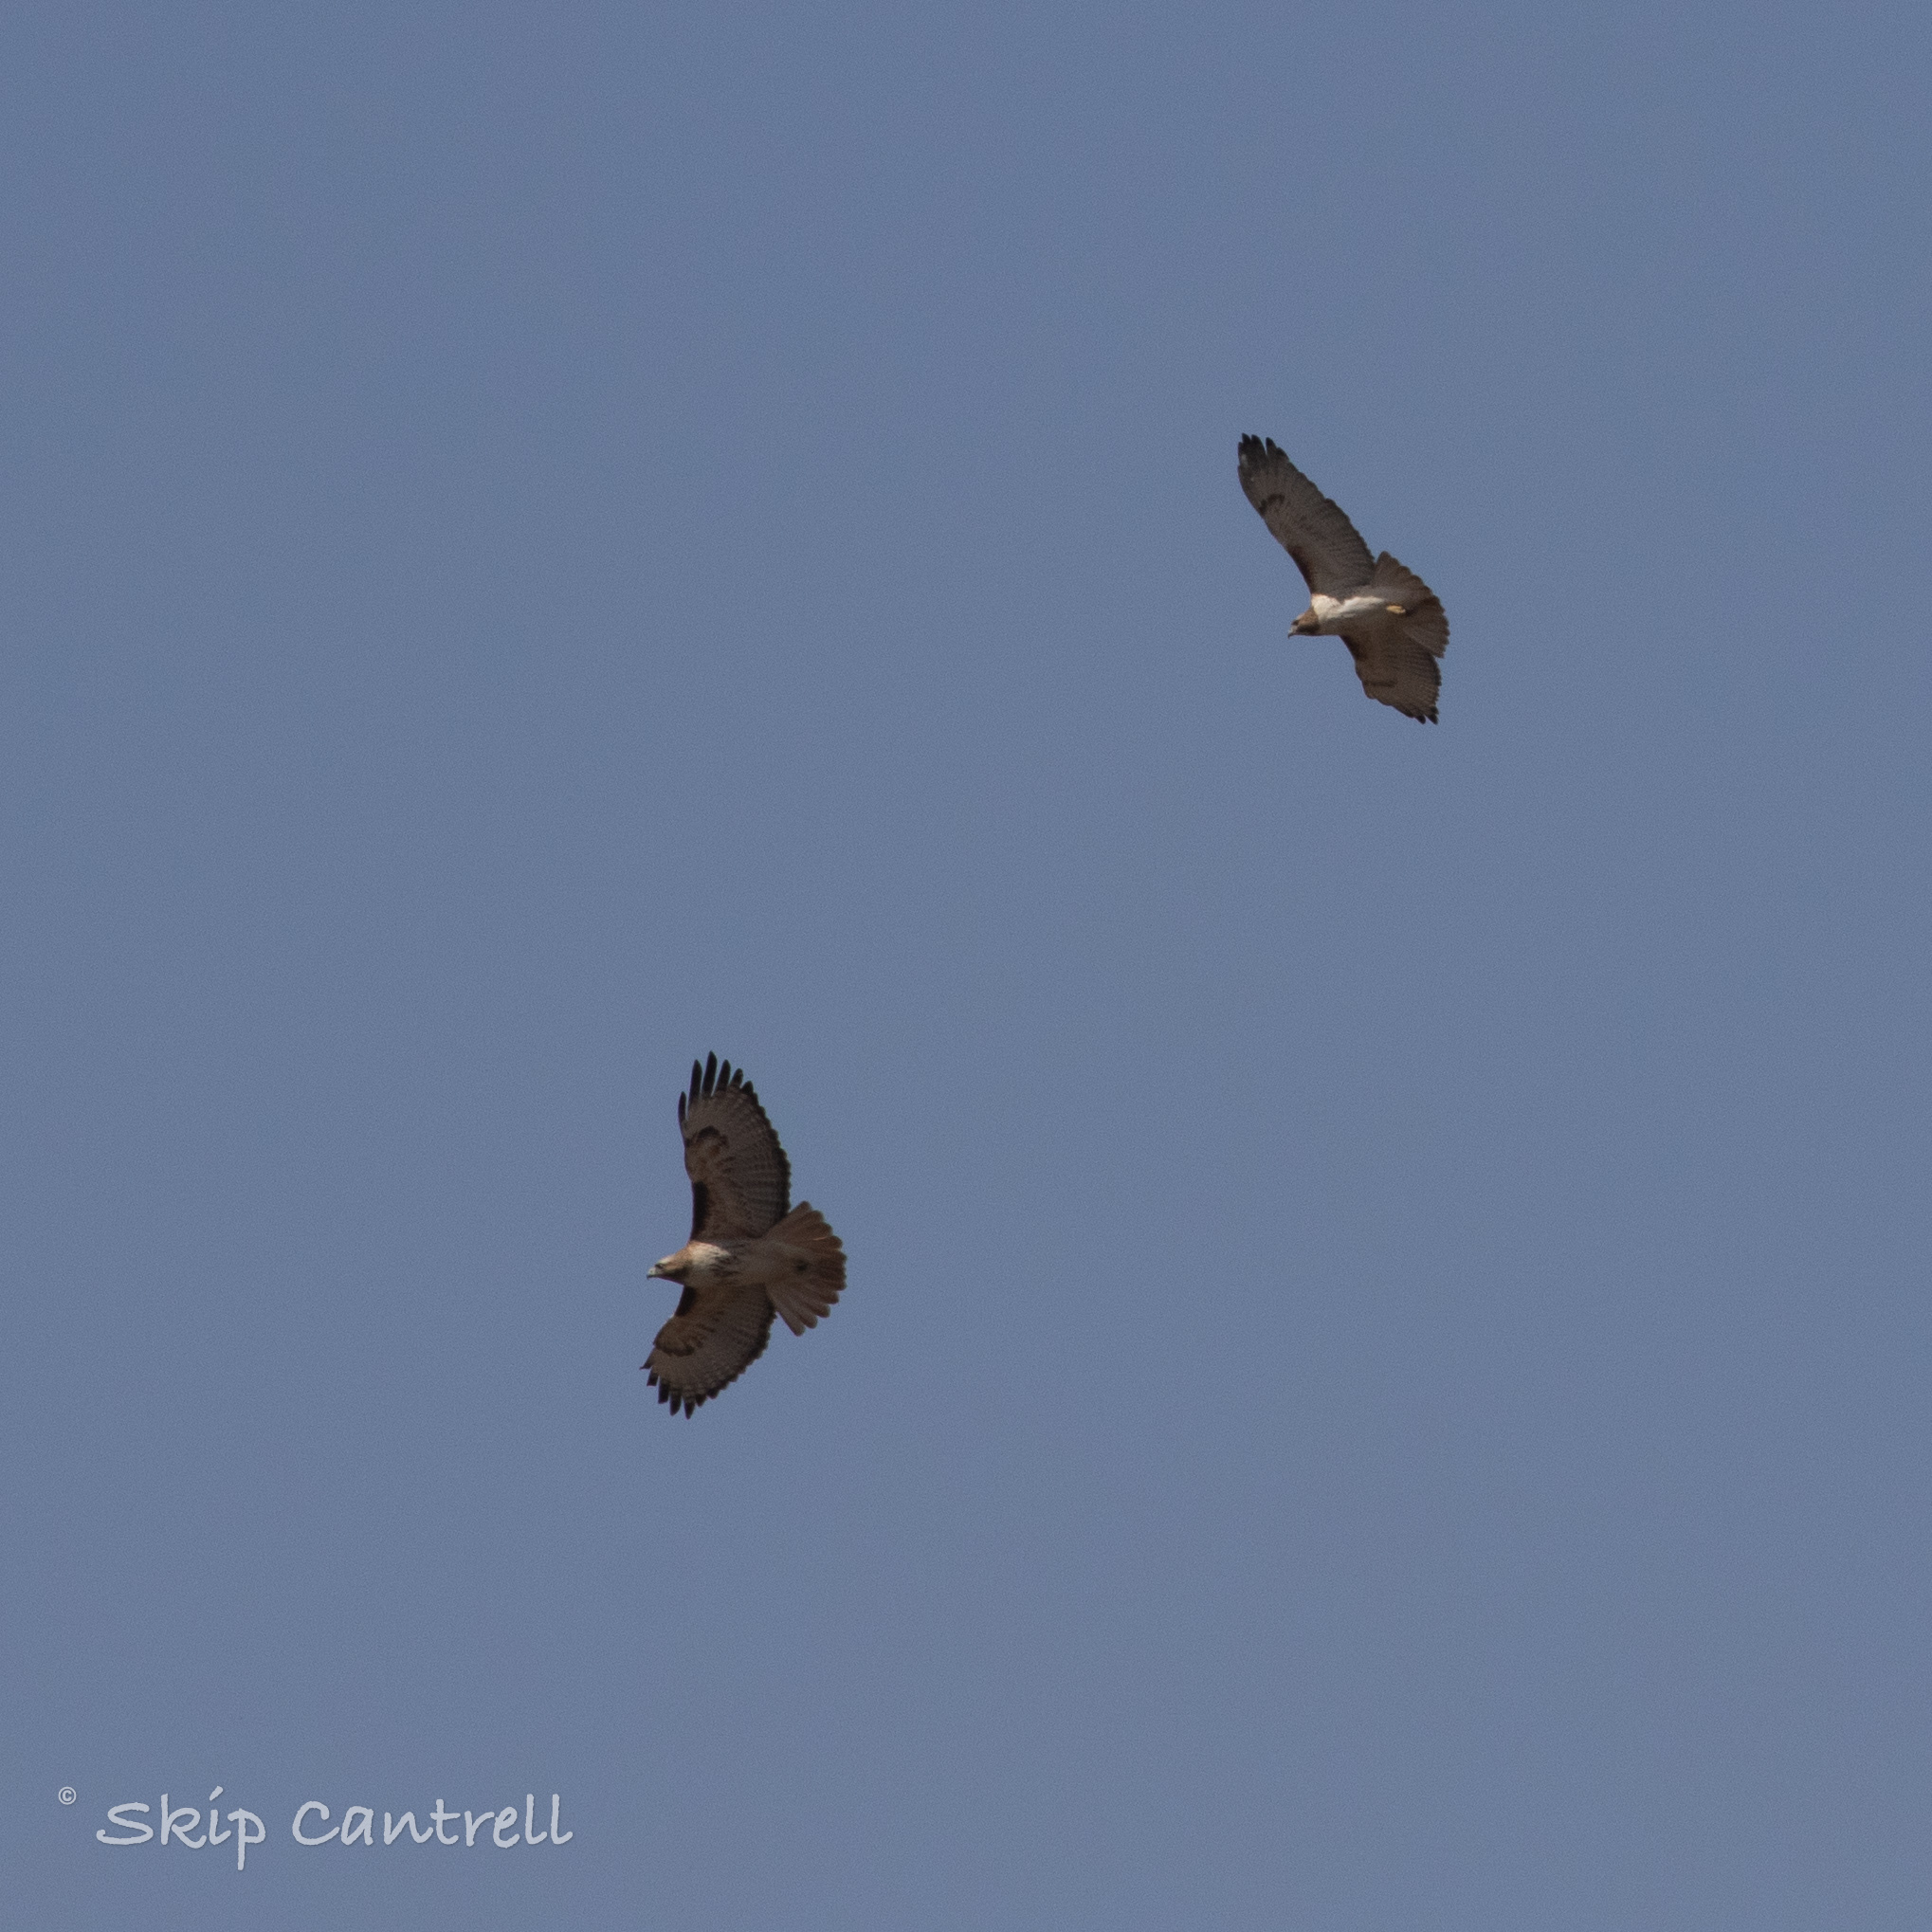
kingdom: Animalia
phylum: Chordata
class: Aves
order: Accipitriformes
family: Accipitridae
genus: Buteo
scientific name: Buteo jamaicensis
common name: Red-tailed hawk
